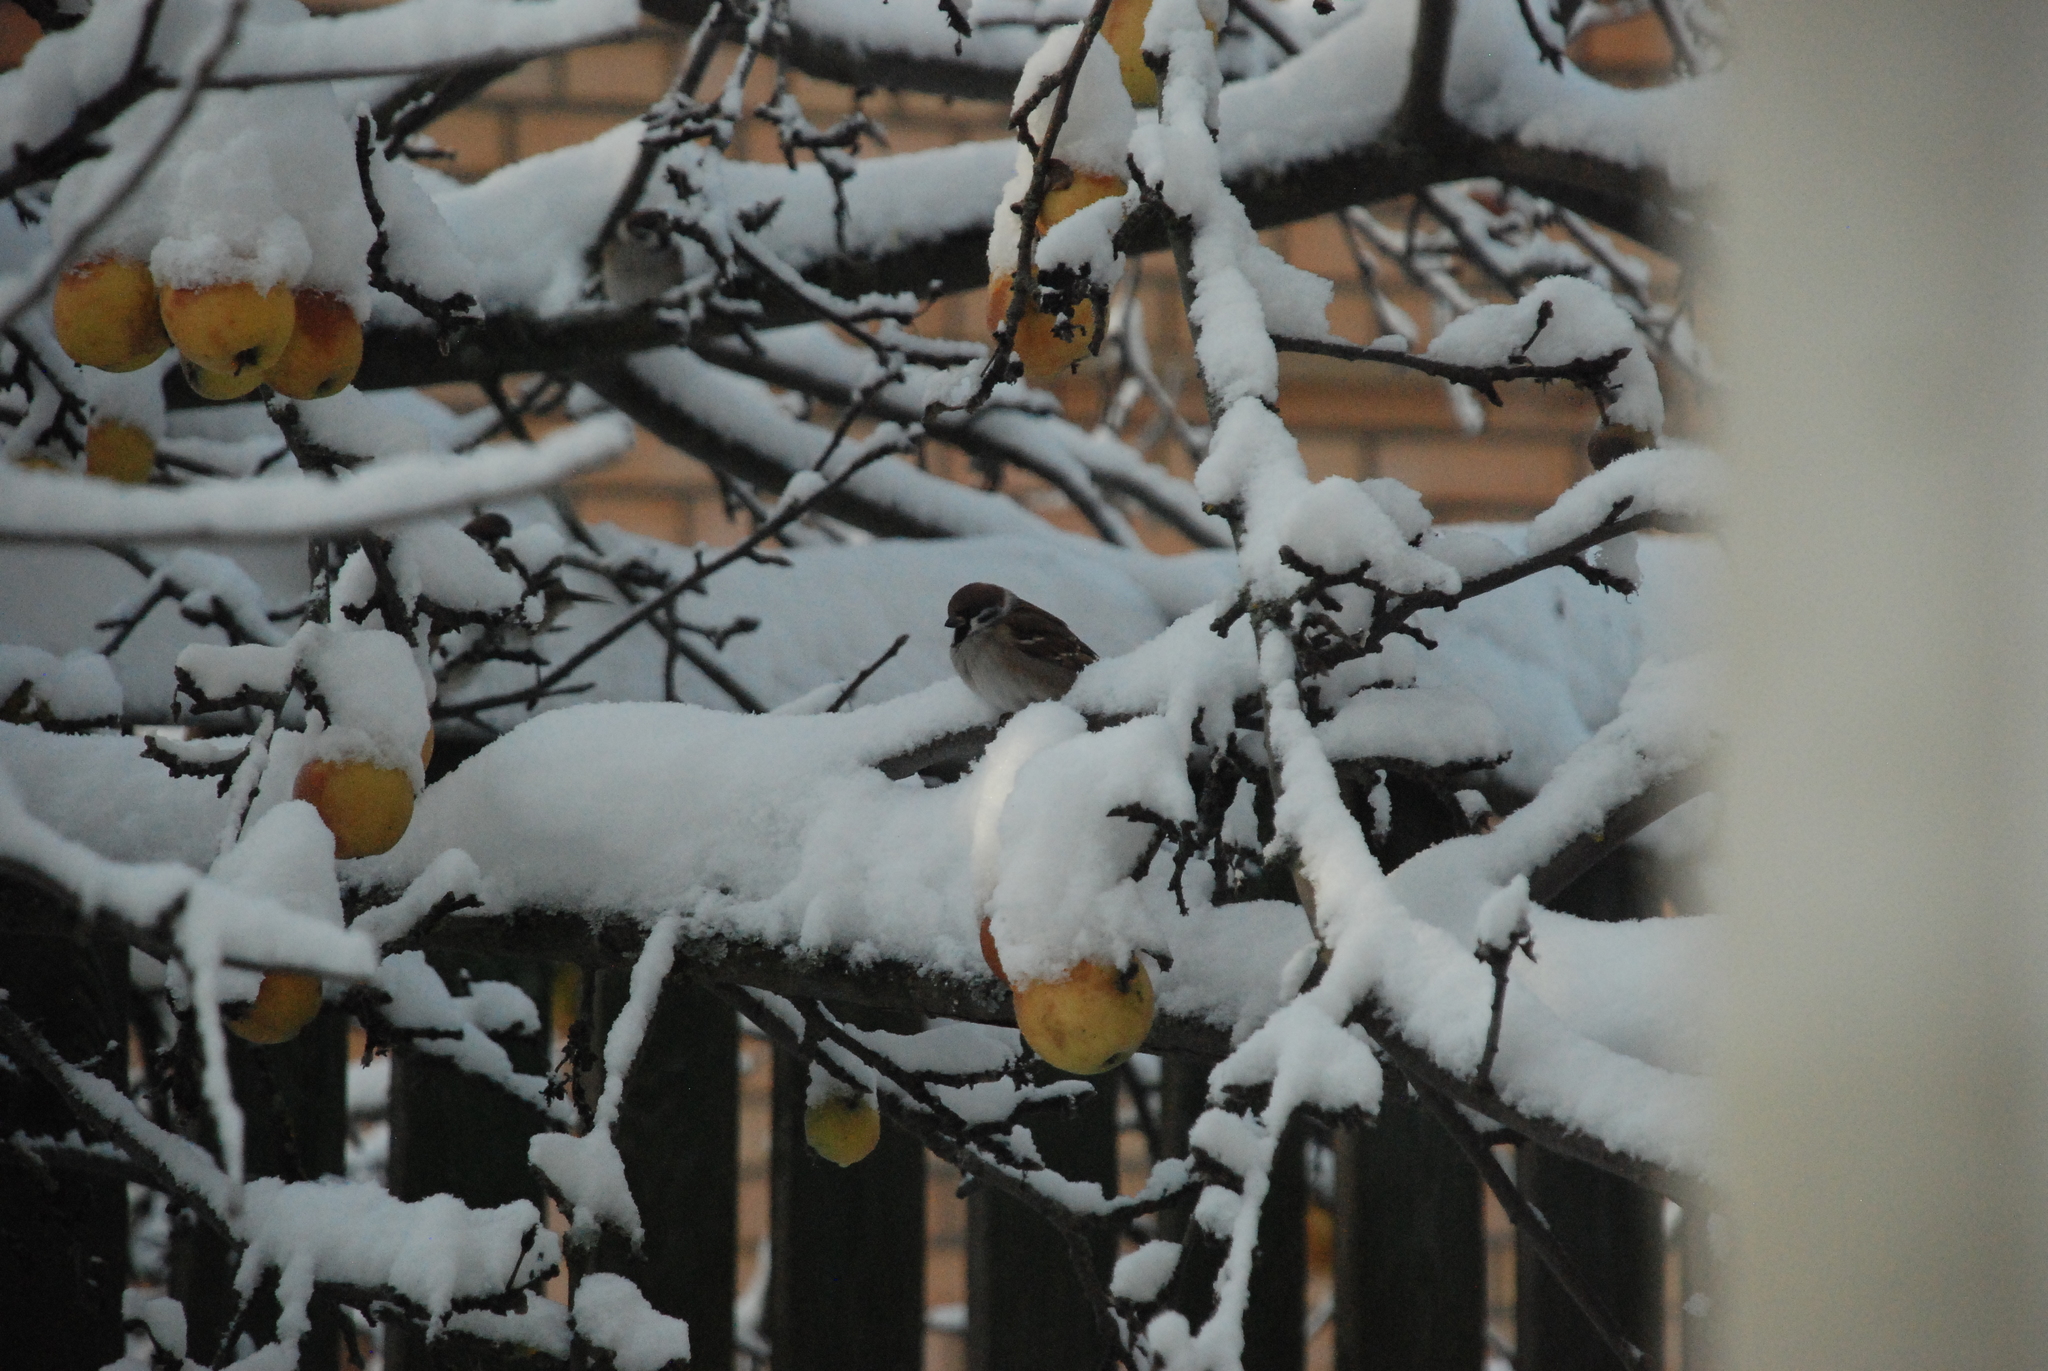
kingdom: Animalia
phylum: Chordata
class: Aves
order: Passeriformes
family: Passeridae
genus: Passer
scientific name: Passer montanus
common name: Eurasian tree sparrow
